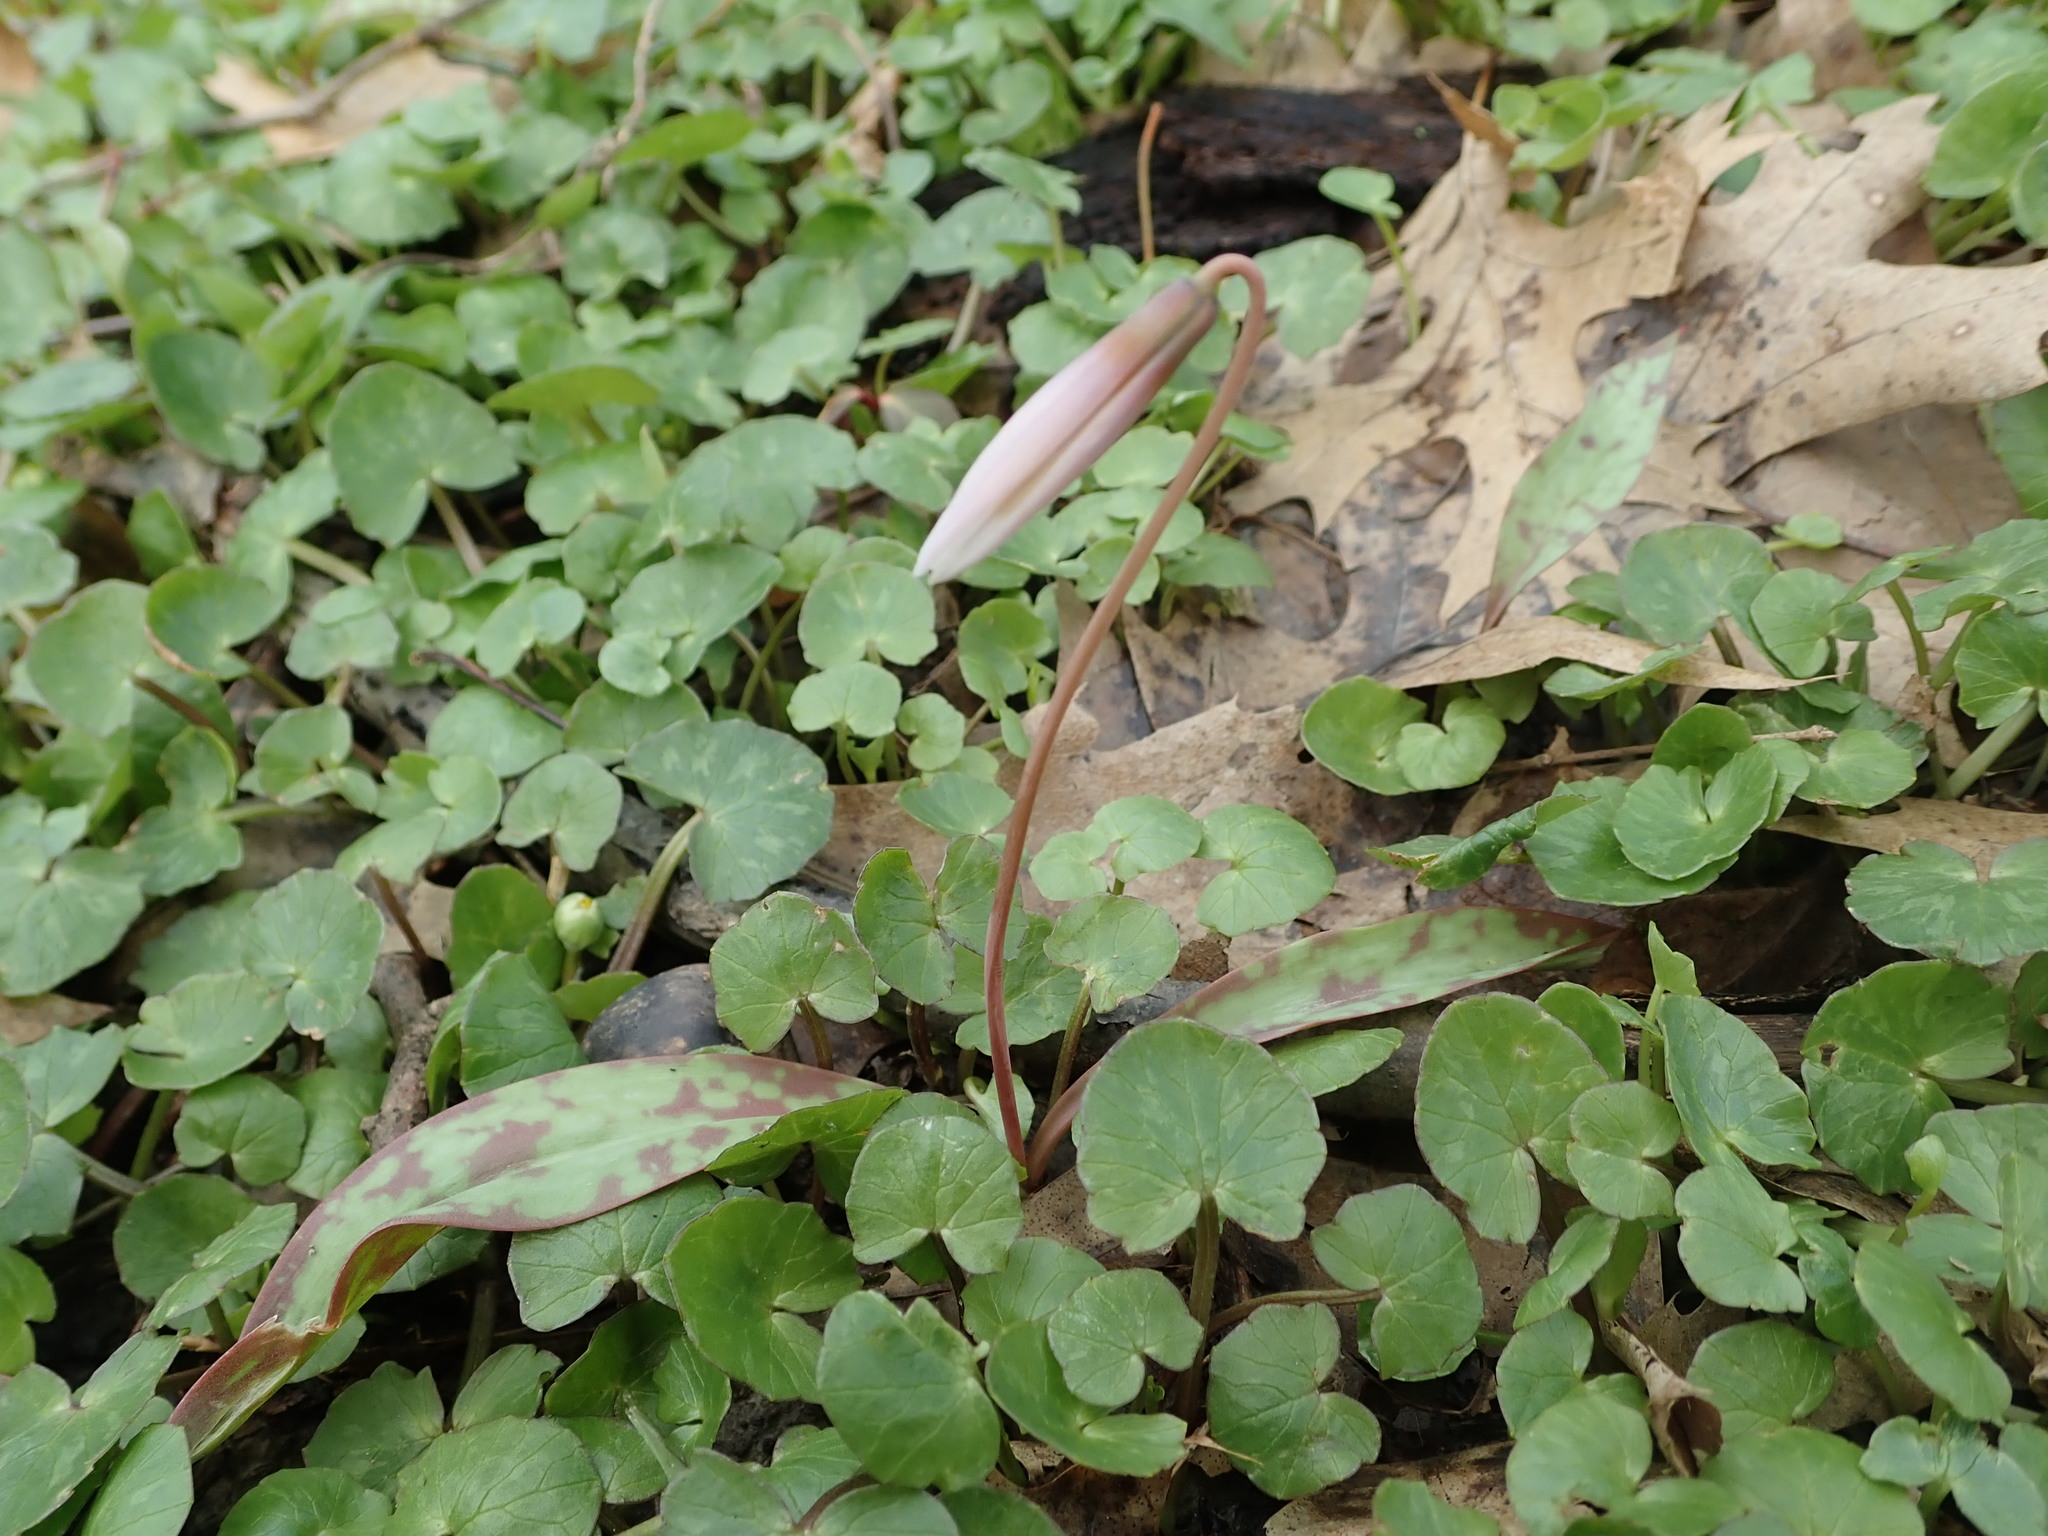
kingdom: Plantae
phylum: Tracheophyta
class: Liliopsida
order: Liliales
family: Liliaceae
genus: Erythronium
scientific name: Erythronium albidum
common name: White trout-lily
